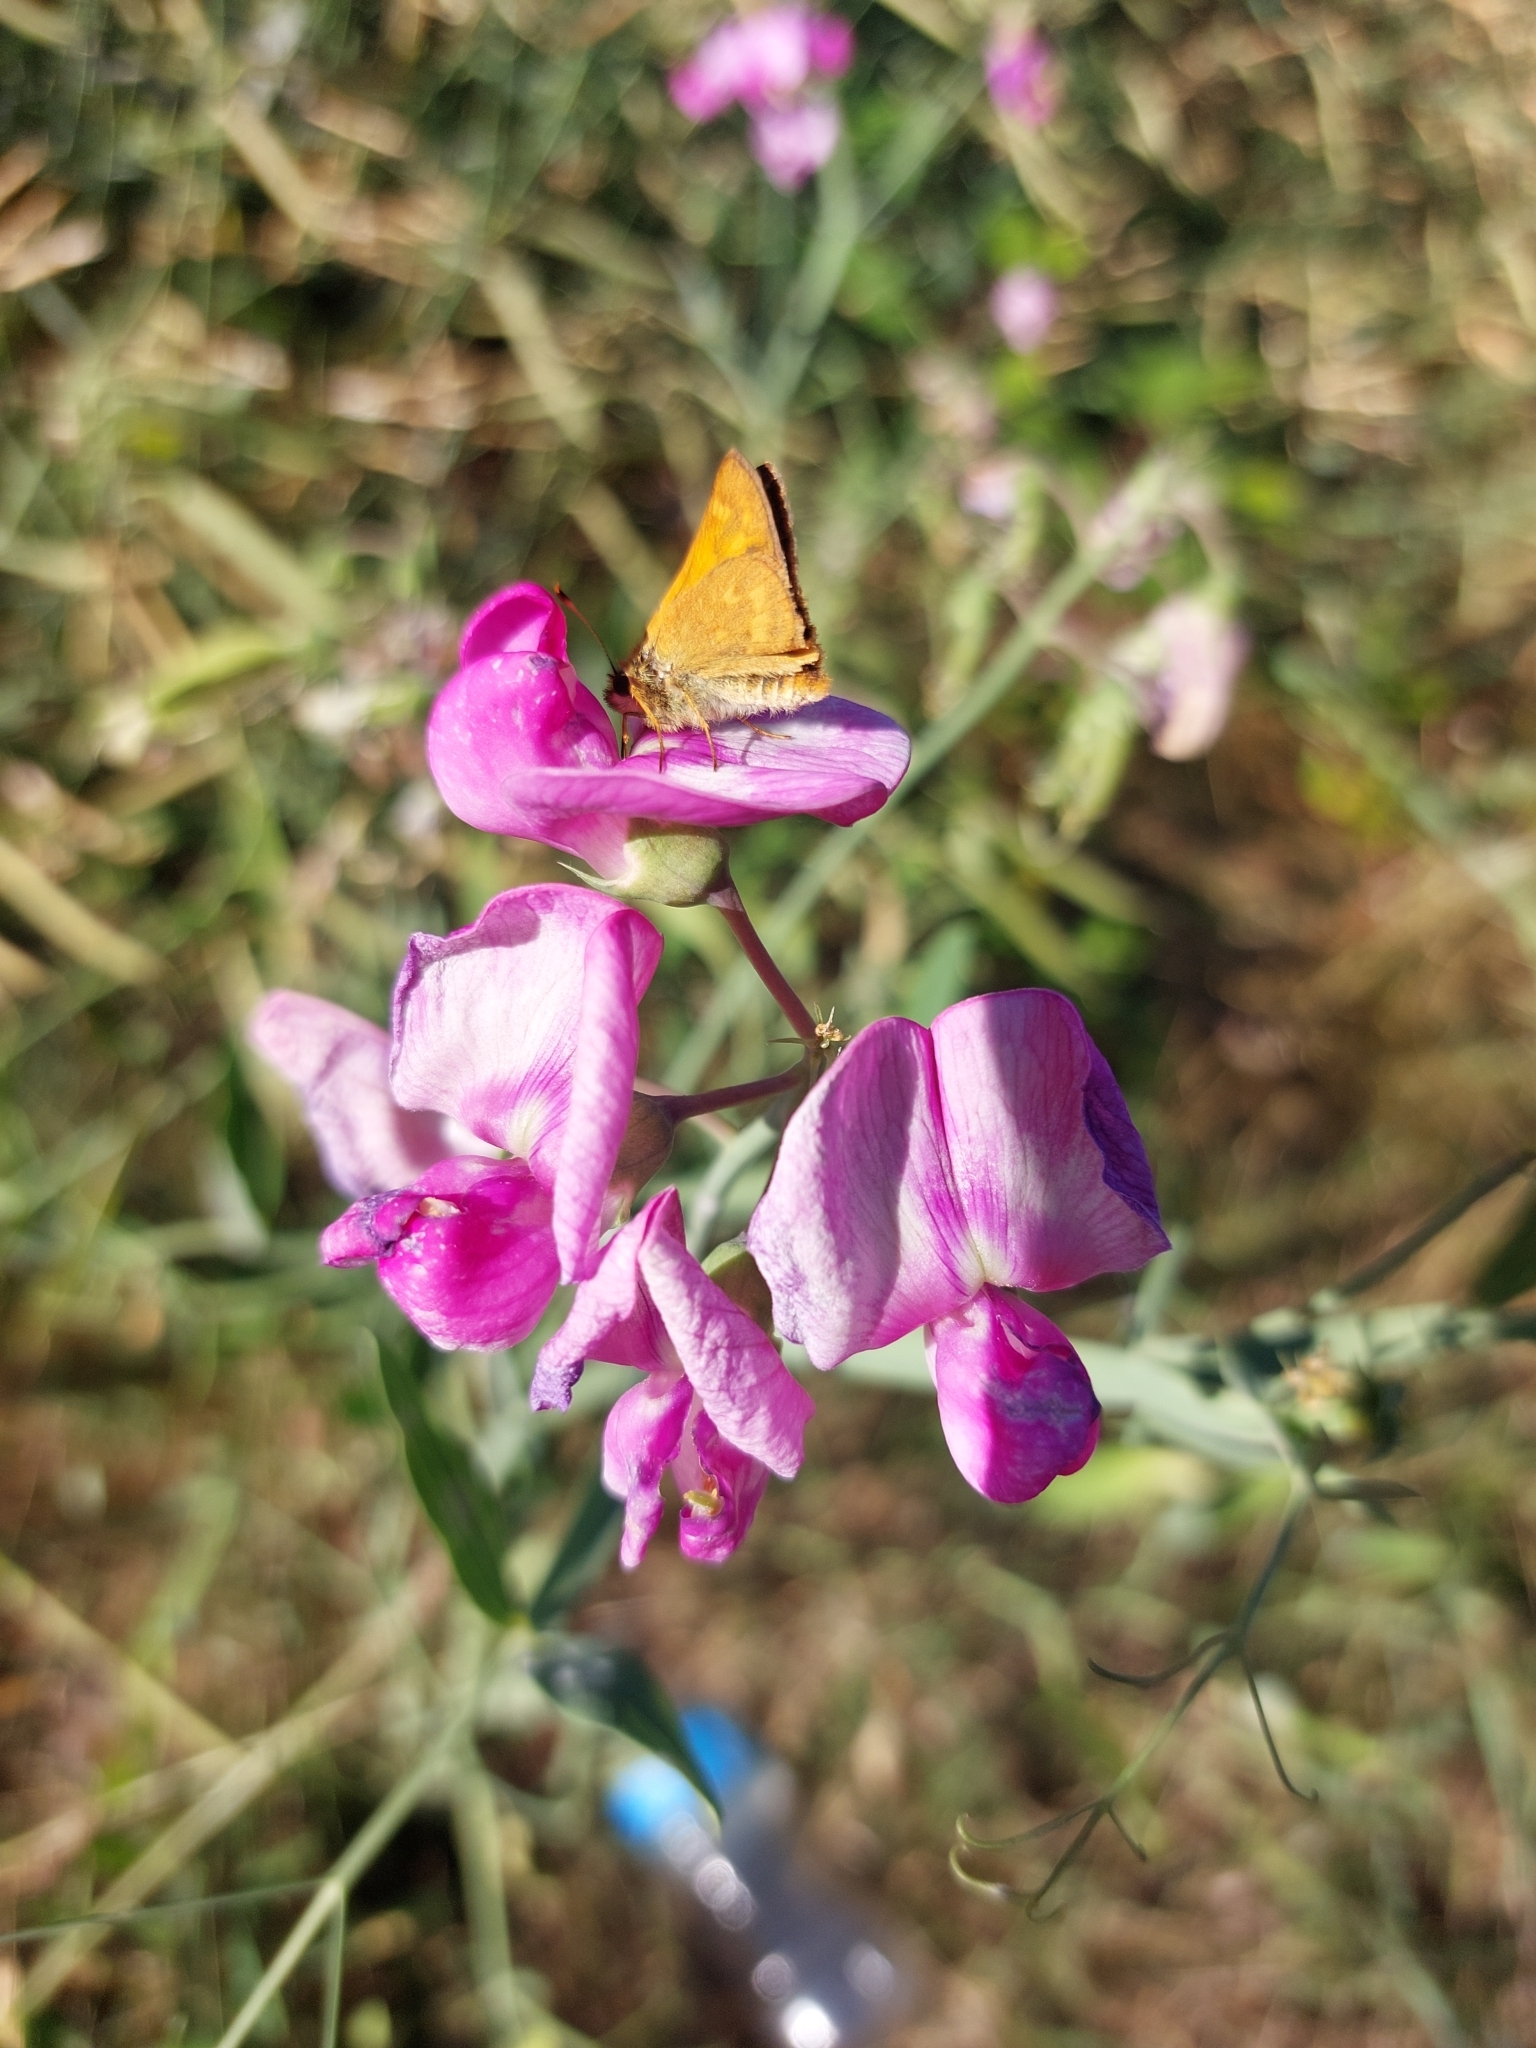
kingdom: Animalia
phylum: Arthropoda
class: Insecta
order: Lepidoptera
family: Hesperiidae
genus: Ochlodes
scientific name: Ochlodes sylvanoides
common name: Woodland skipper
